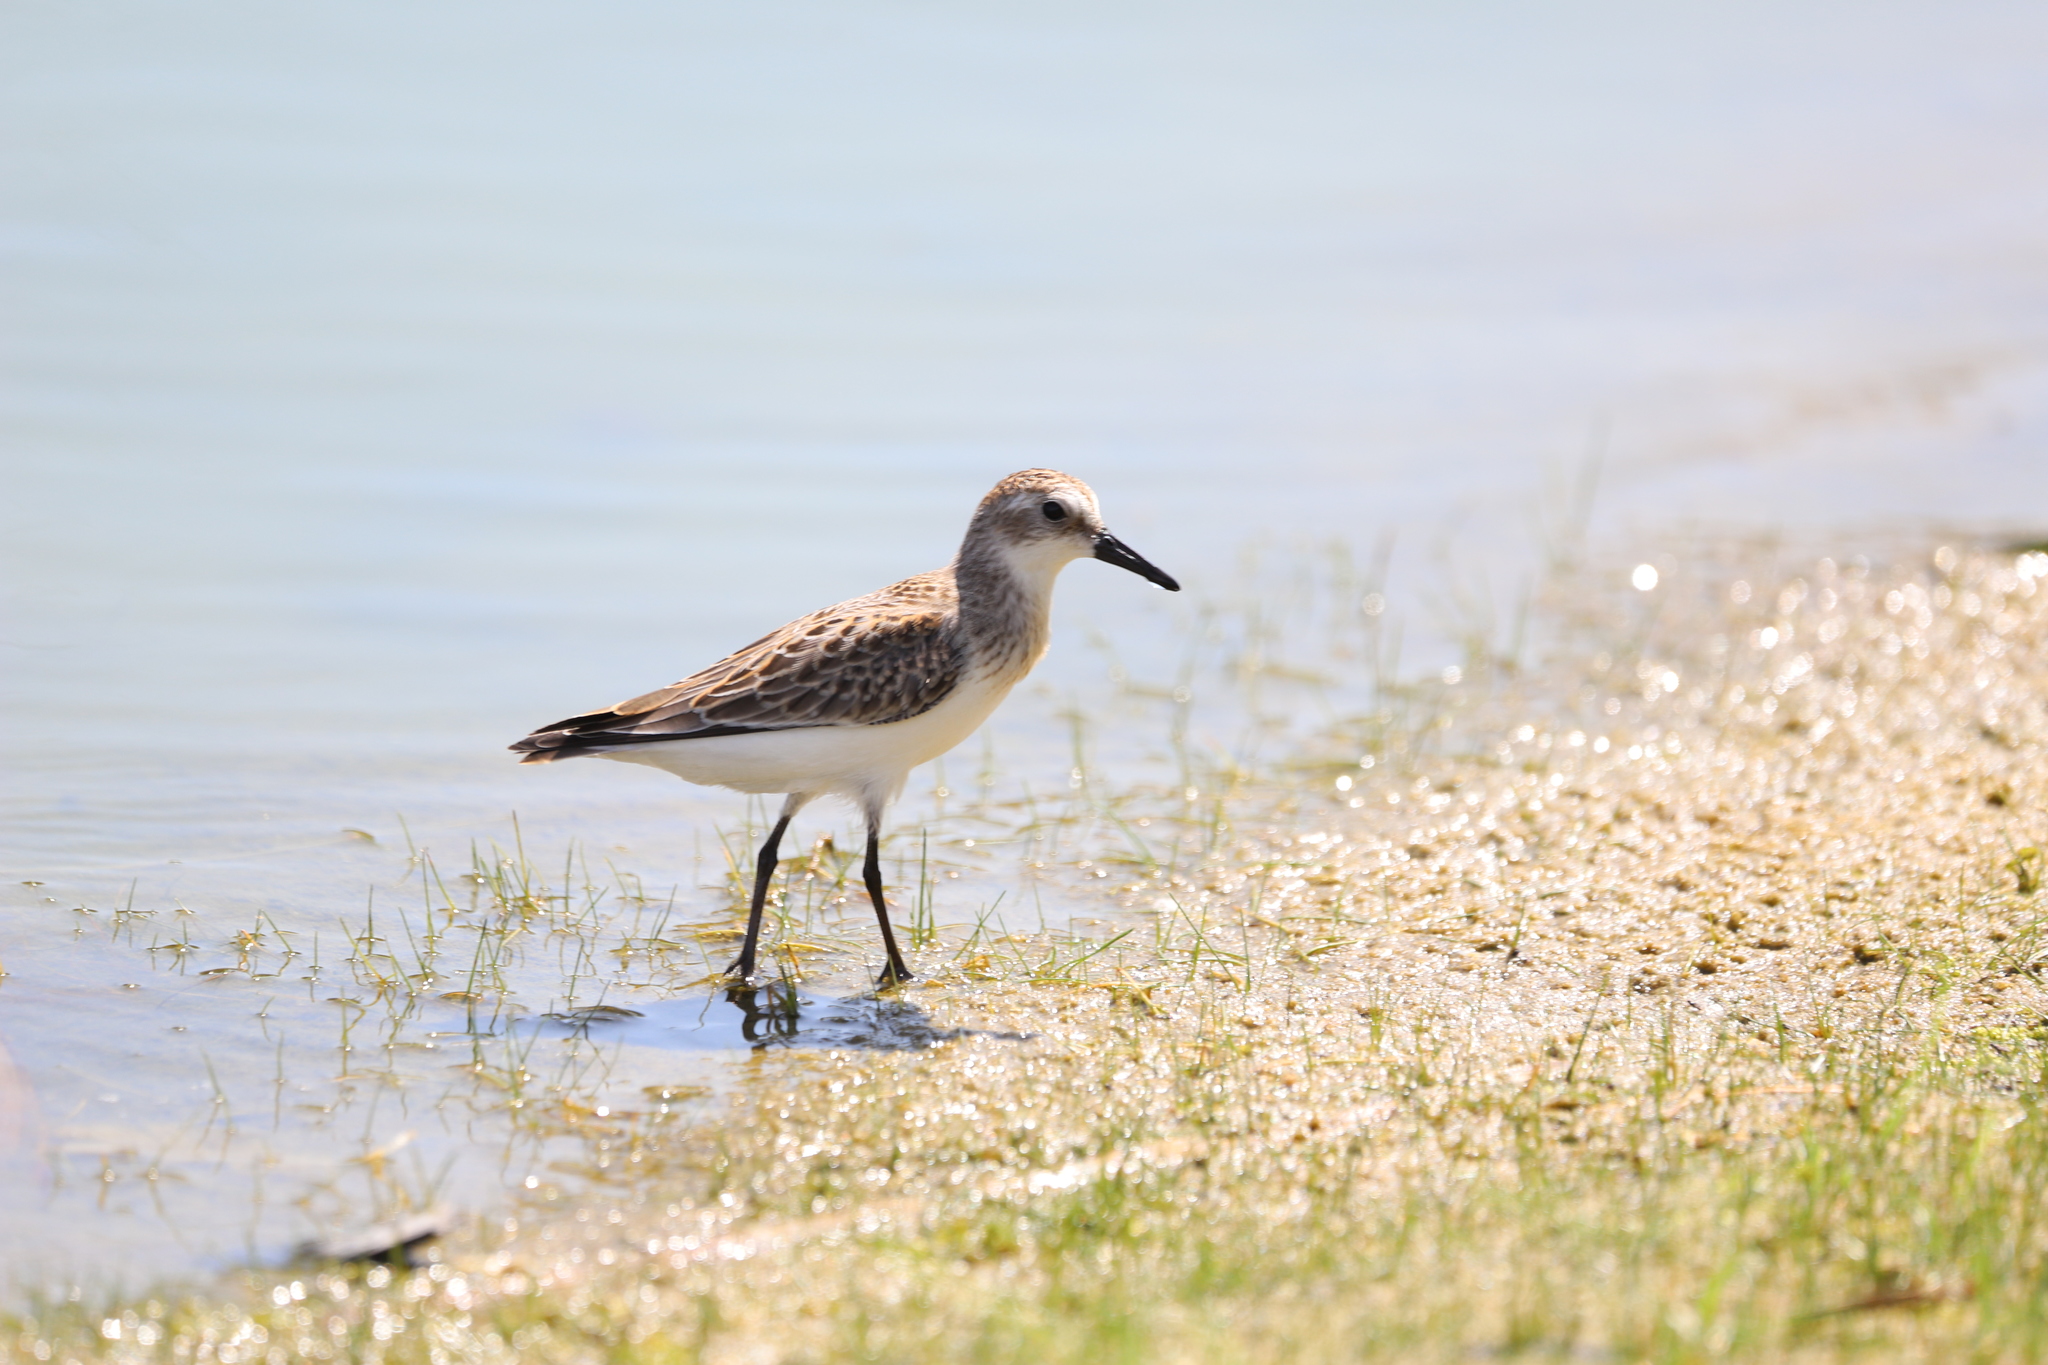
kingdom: Animalia
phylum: Chordata
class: Aves
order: Charadriiformes
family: Scolopacidae
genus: Calidris
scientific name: Calidris pusilla
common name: Semipalmated sandpiper
